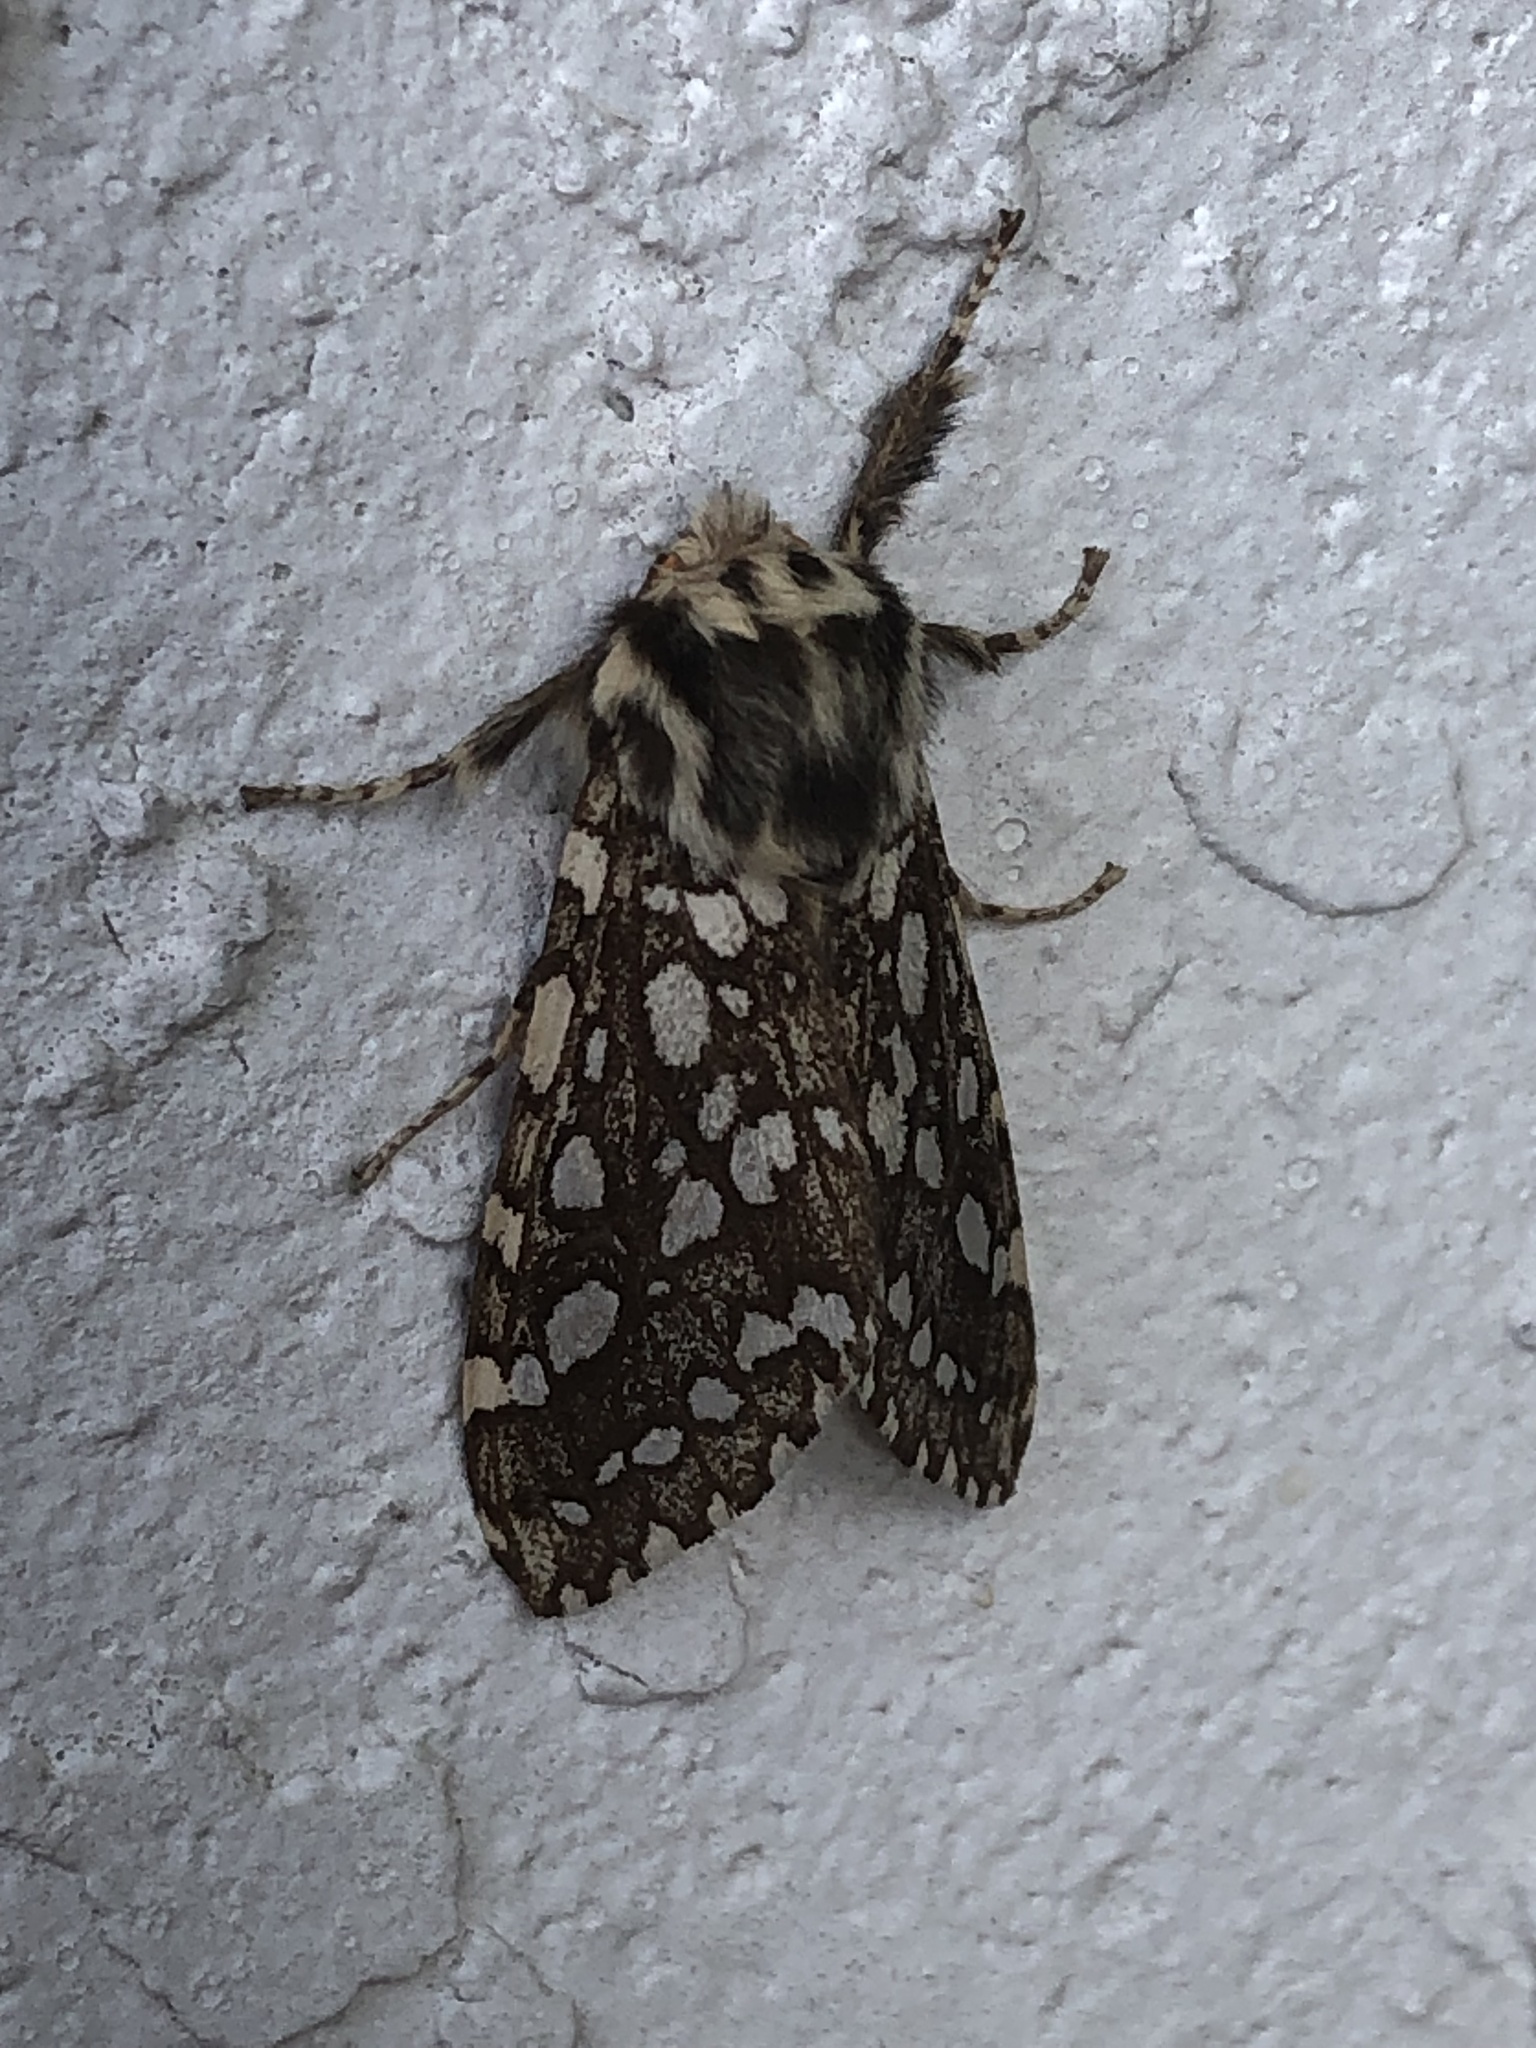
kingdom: Animalia
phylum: Arthropoda
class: Insecta
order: Lepidoptera
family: Erebidae
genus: Lophocampa
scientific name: Lophocampa argentata
